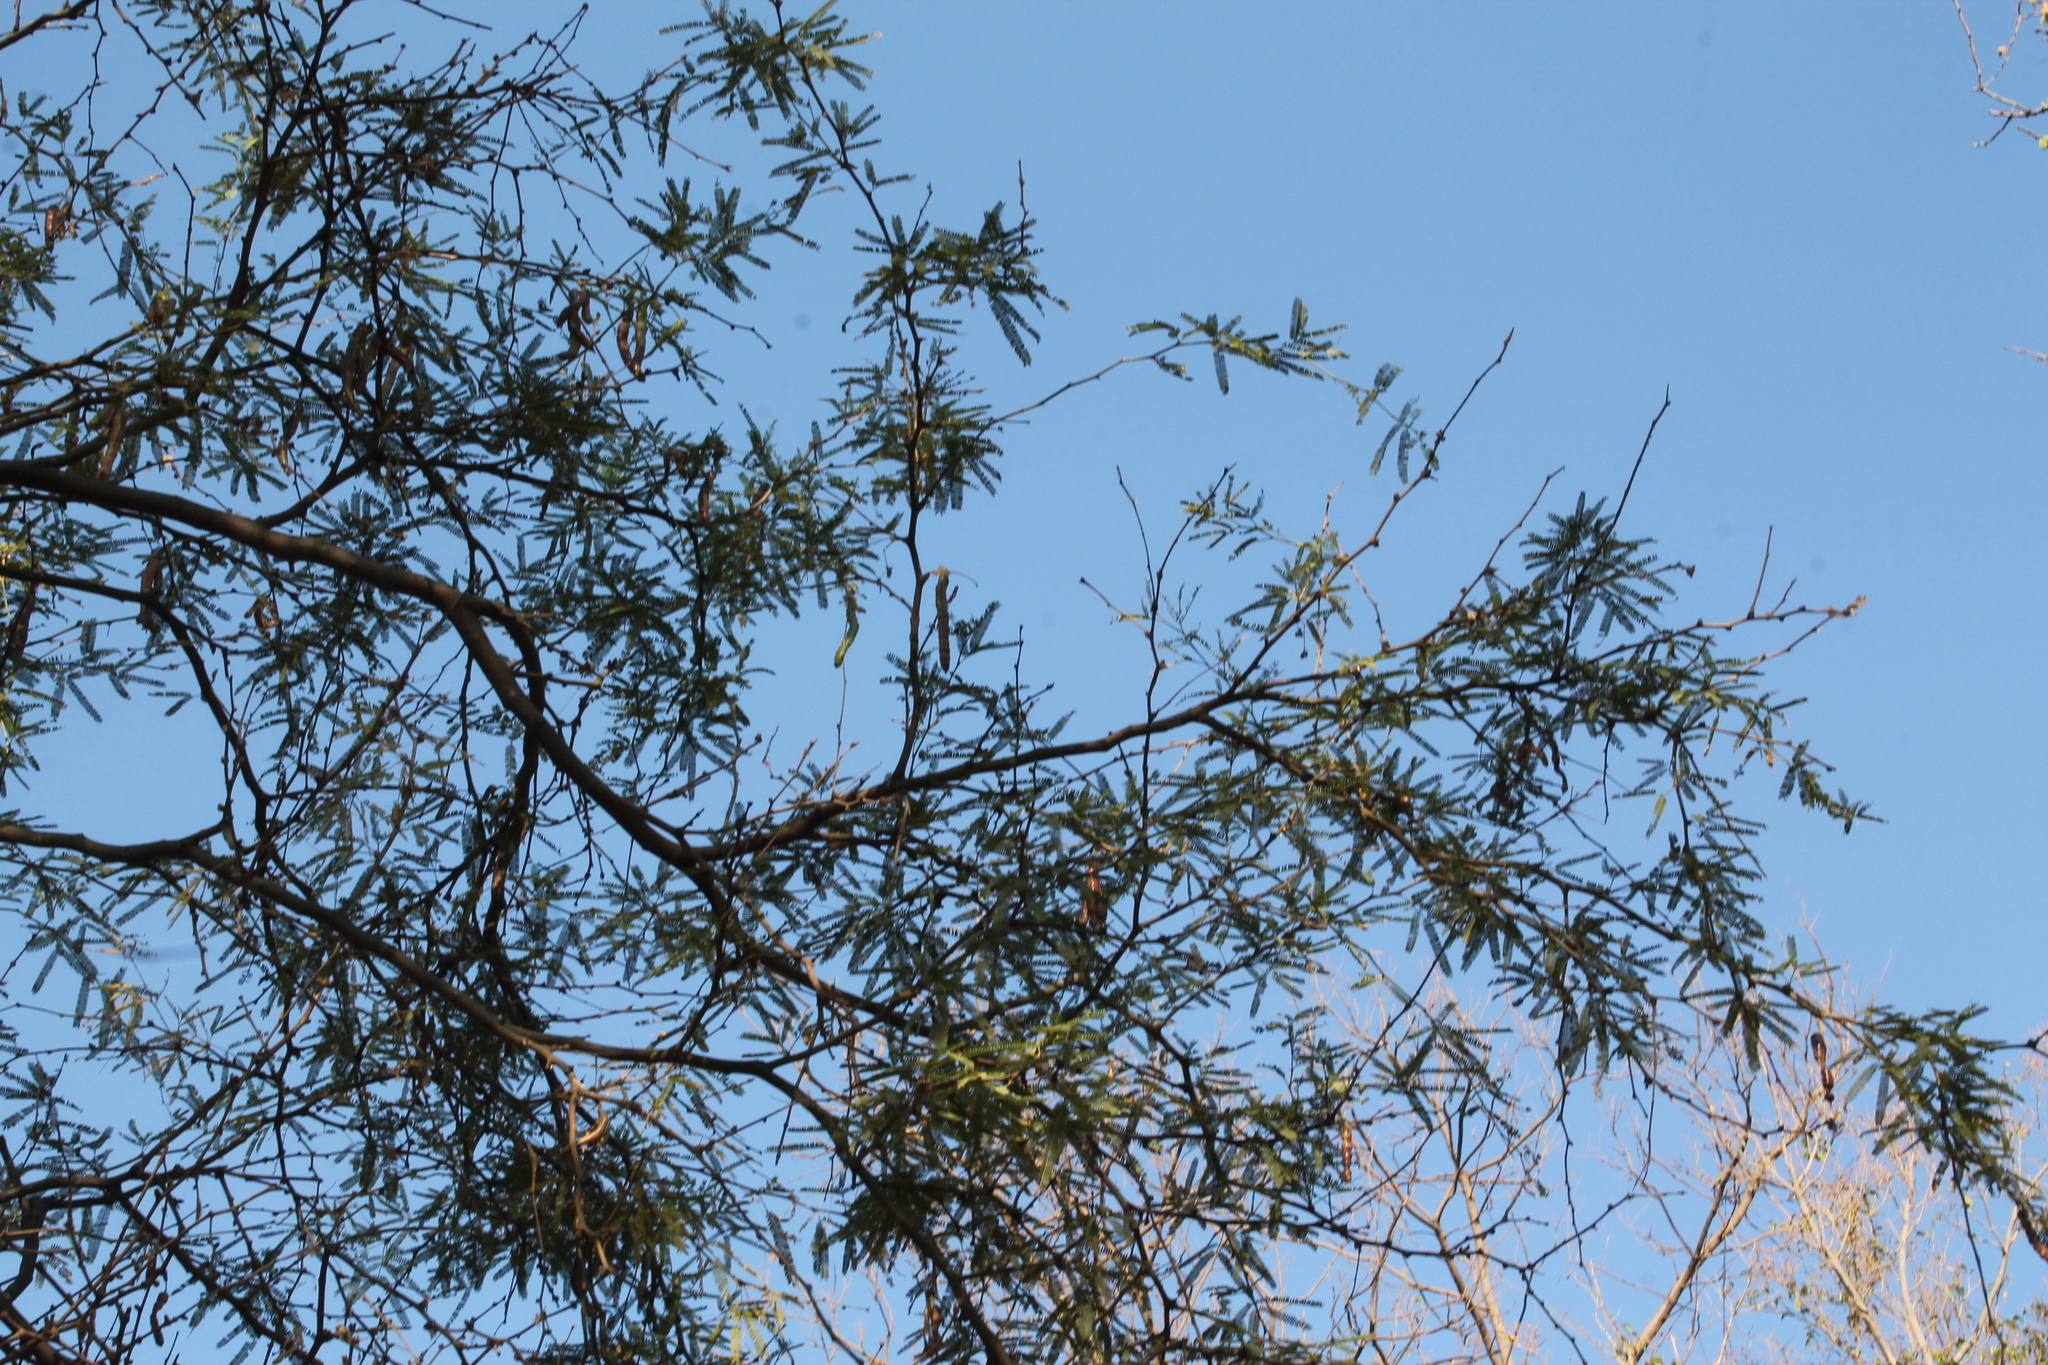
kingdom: Plantae
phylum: Tracheophyta
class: Magnoliopsida
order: Fabales
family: Fabaceae
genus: Prosopis
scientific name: Prosopis laevigata
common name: Smooth mesquite
